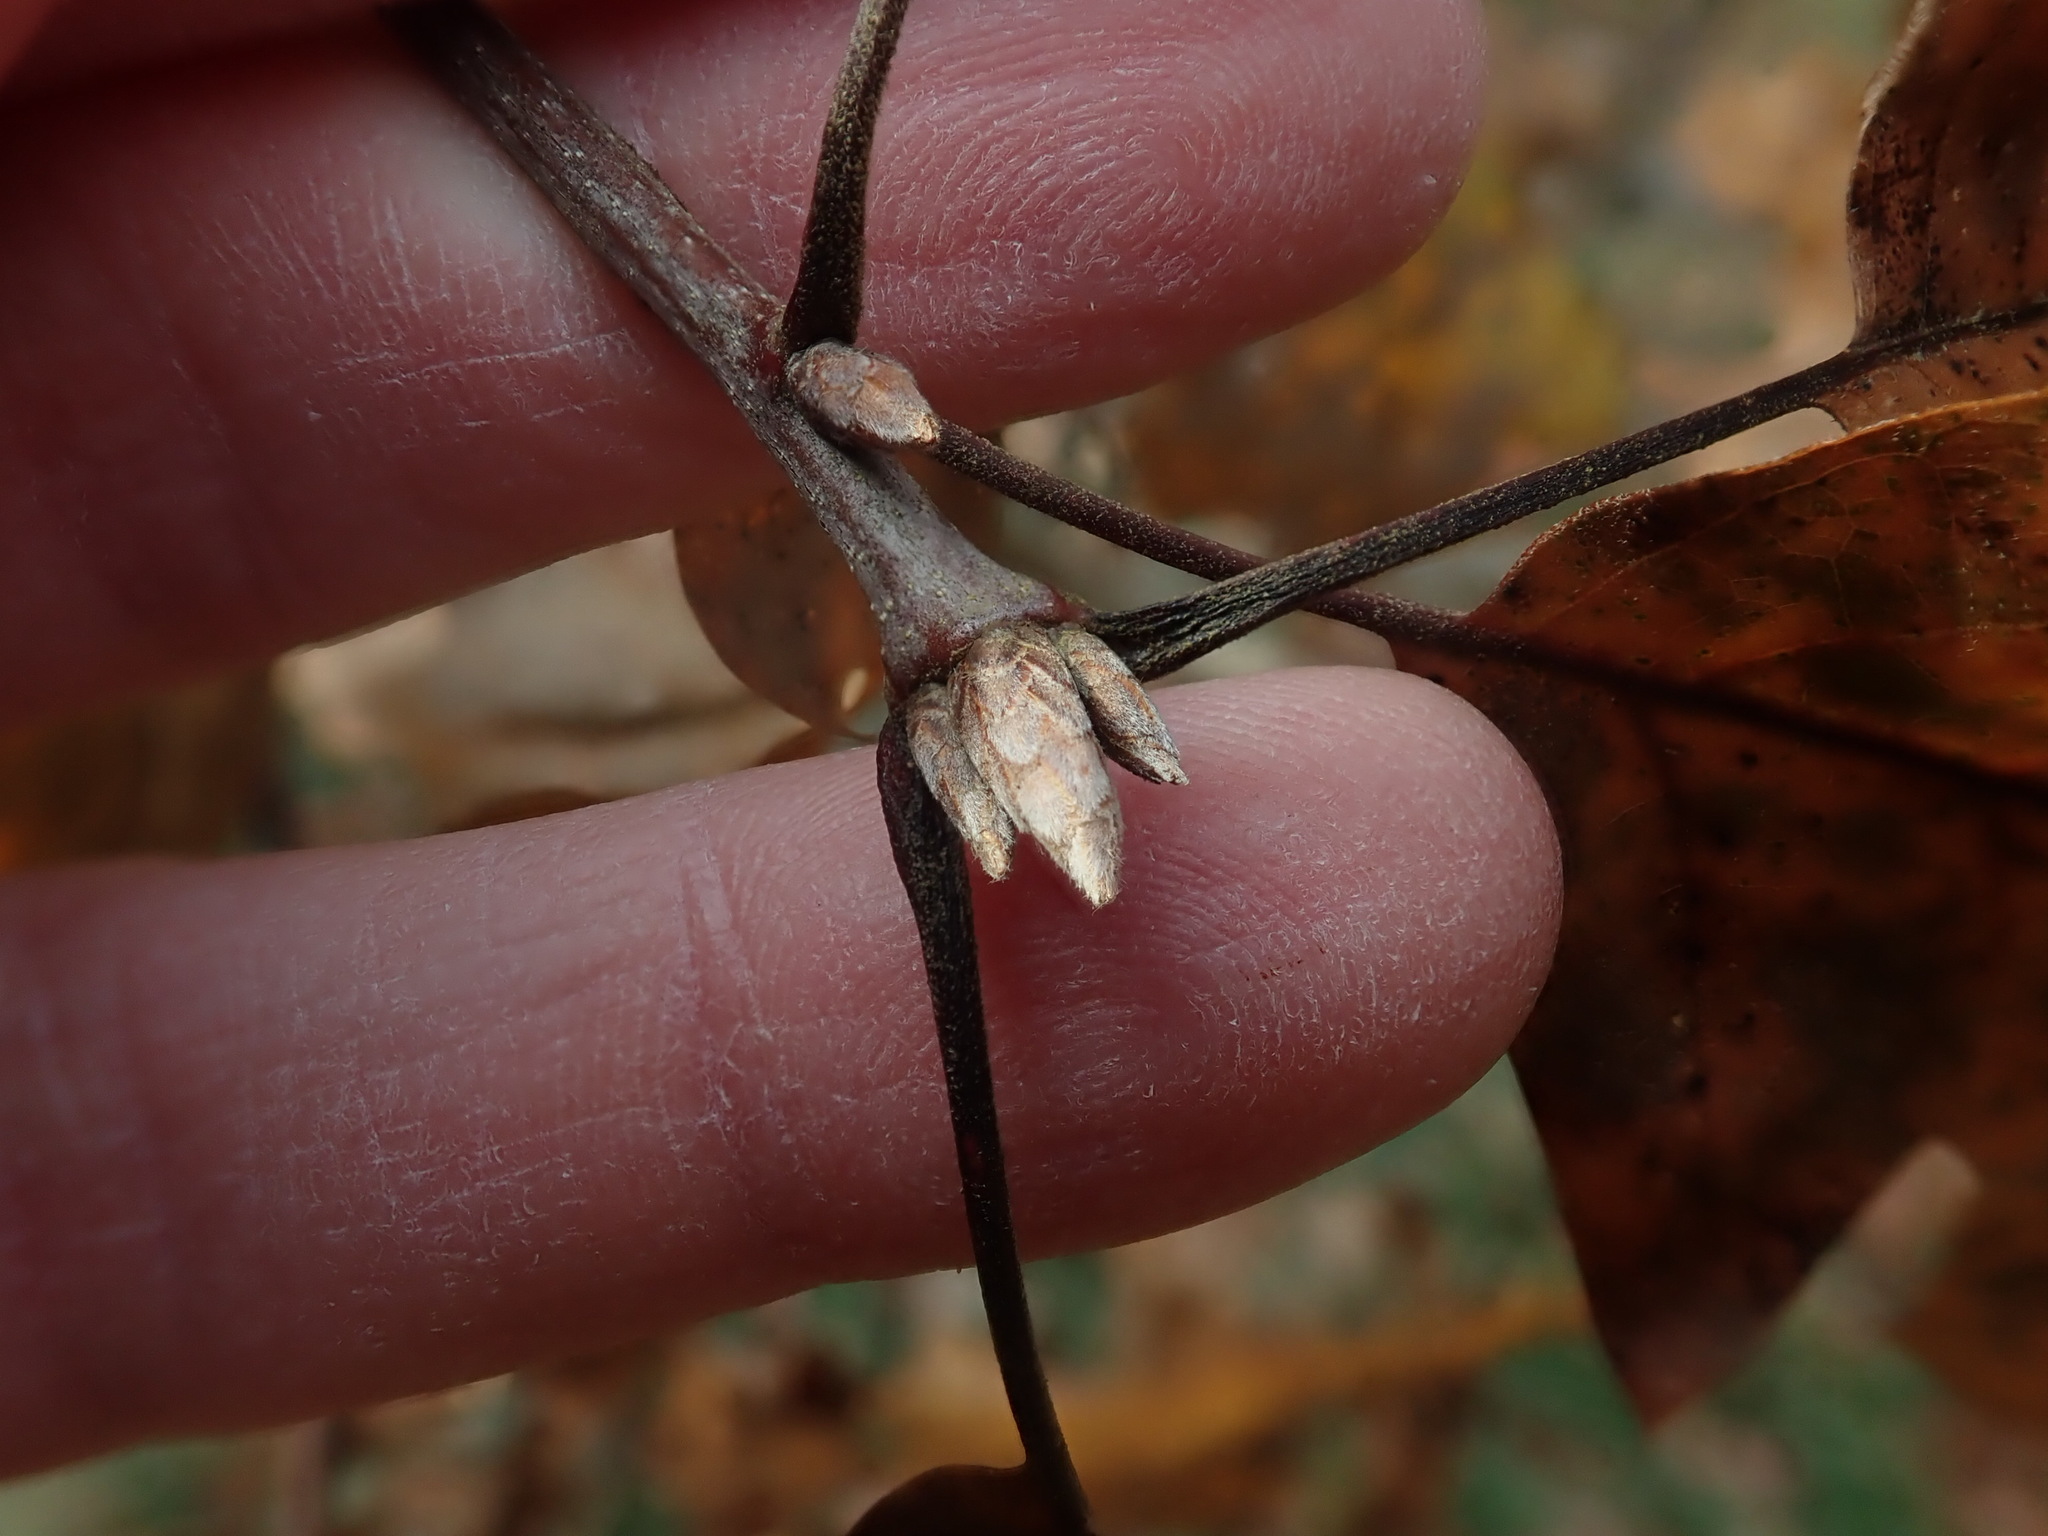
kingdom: Plantae
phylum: Tracheophyta
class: Magnoliopsida
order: Fagales
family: Fagaceae
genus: Quercus
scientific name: Quercus velutina
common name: Black oak
